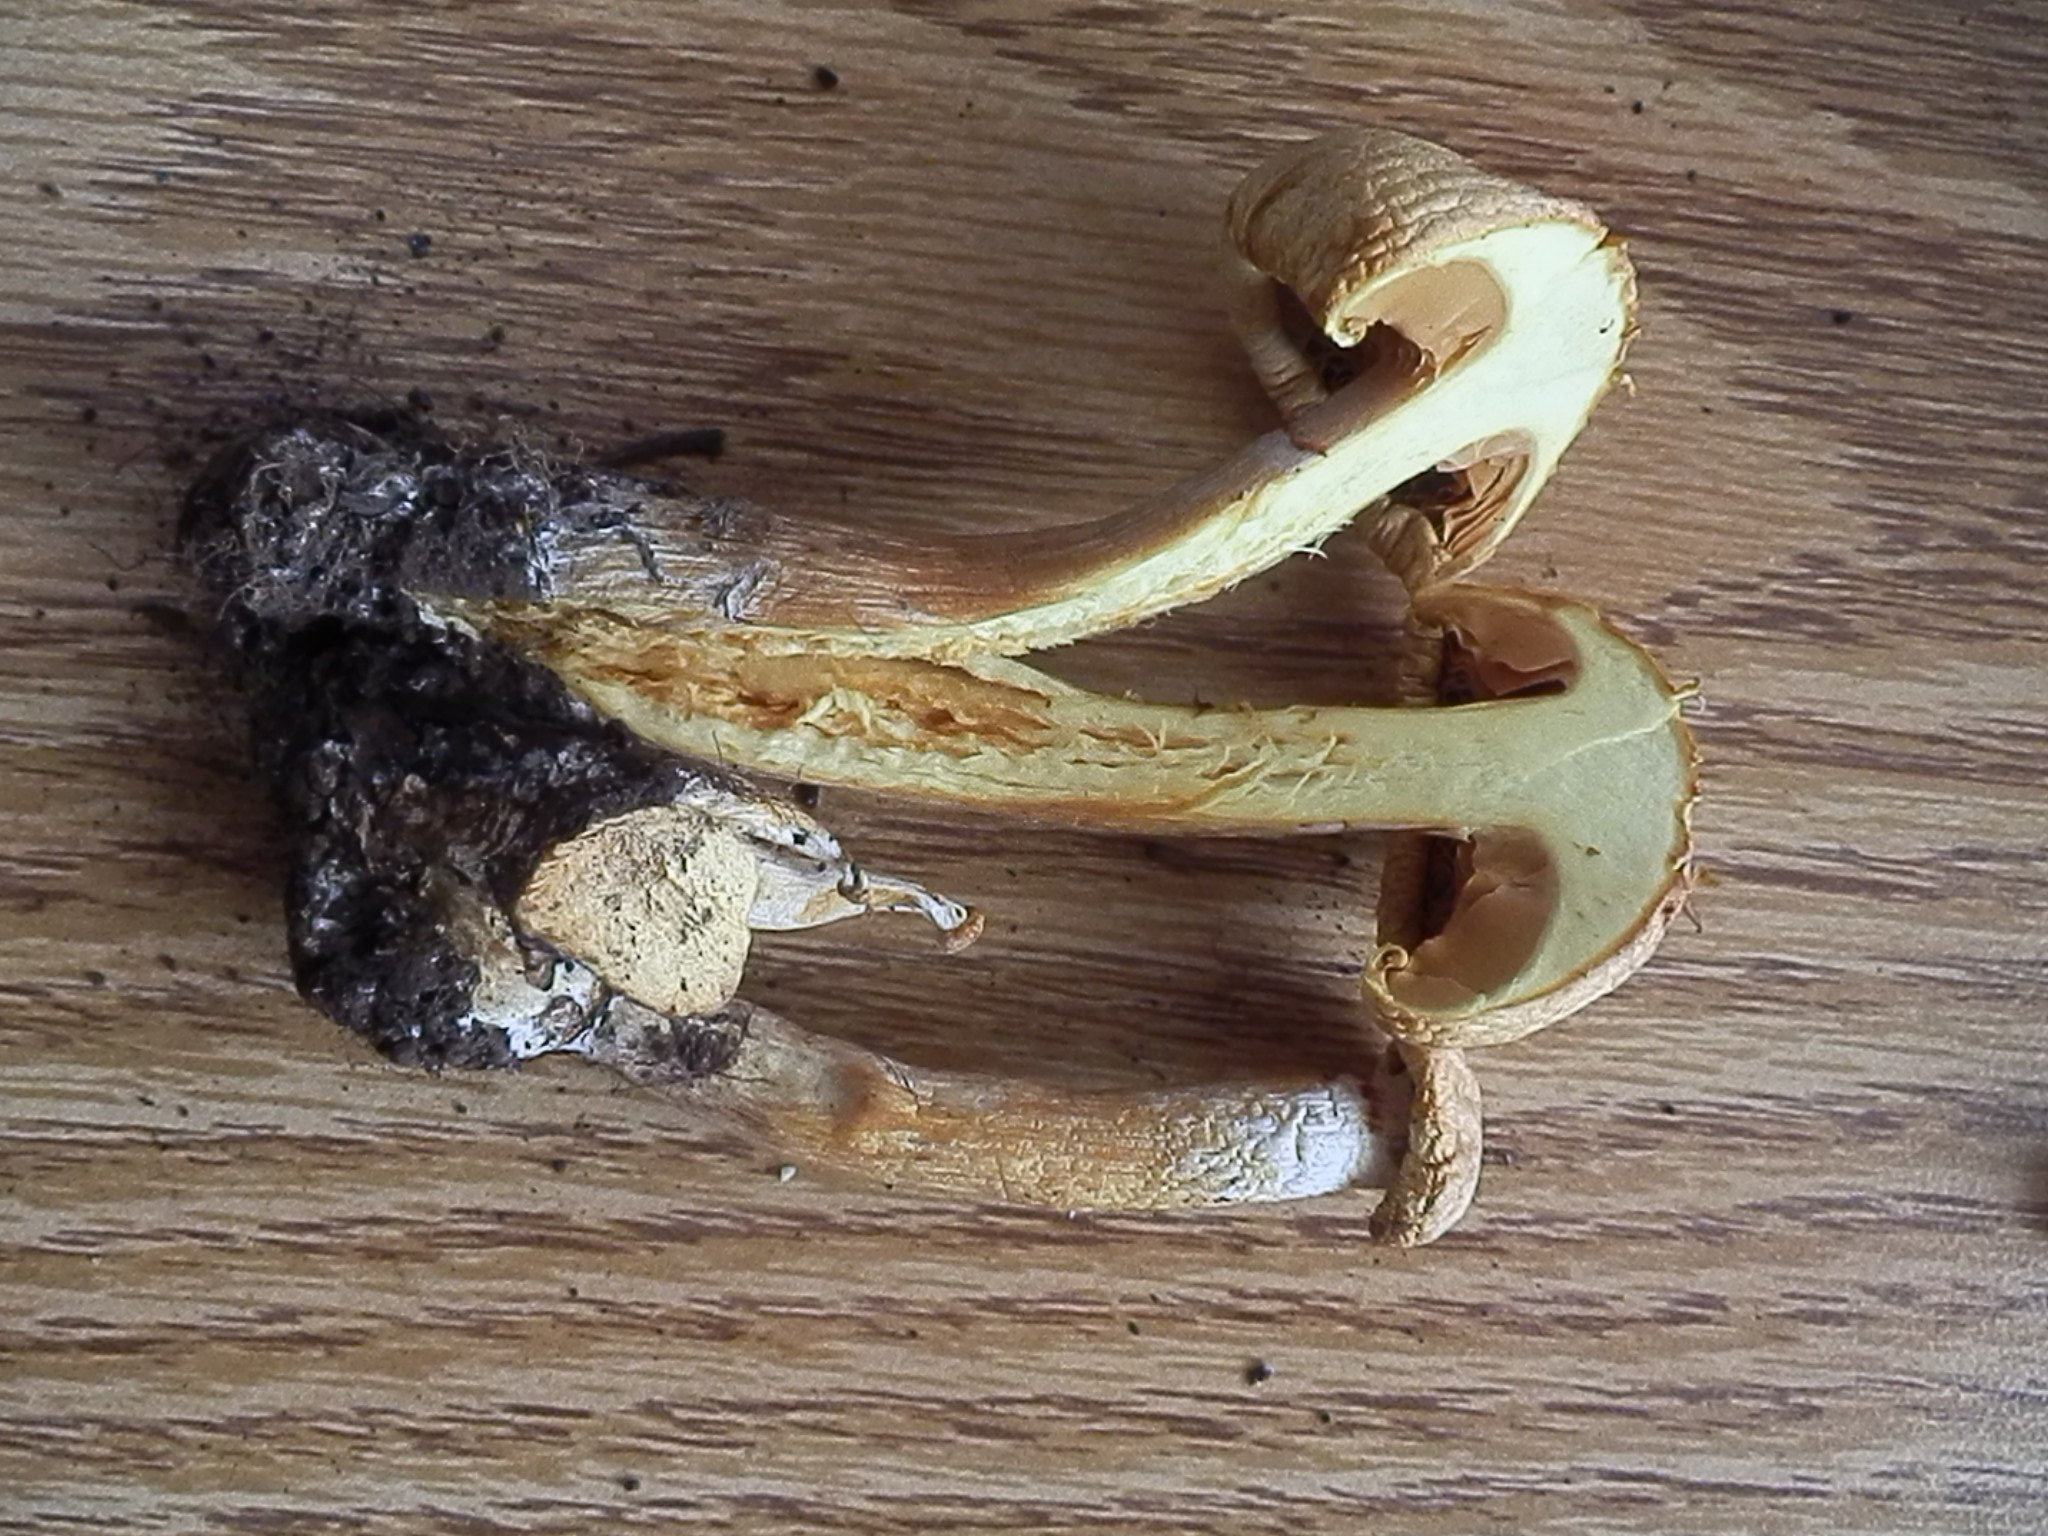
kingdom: Fungi
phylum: Basidiomycota
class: Agaricomycetes
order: Agaricales
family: Hymenogastraceae
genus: Gymnopilus
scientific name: Gymnopilus stabilis
